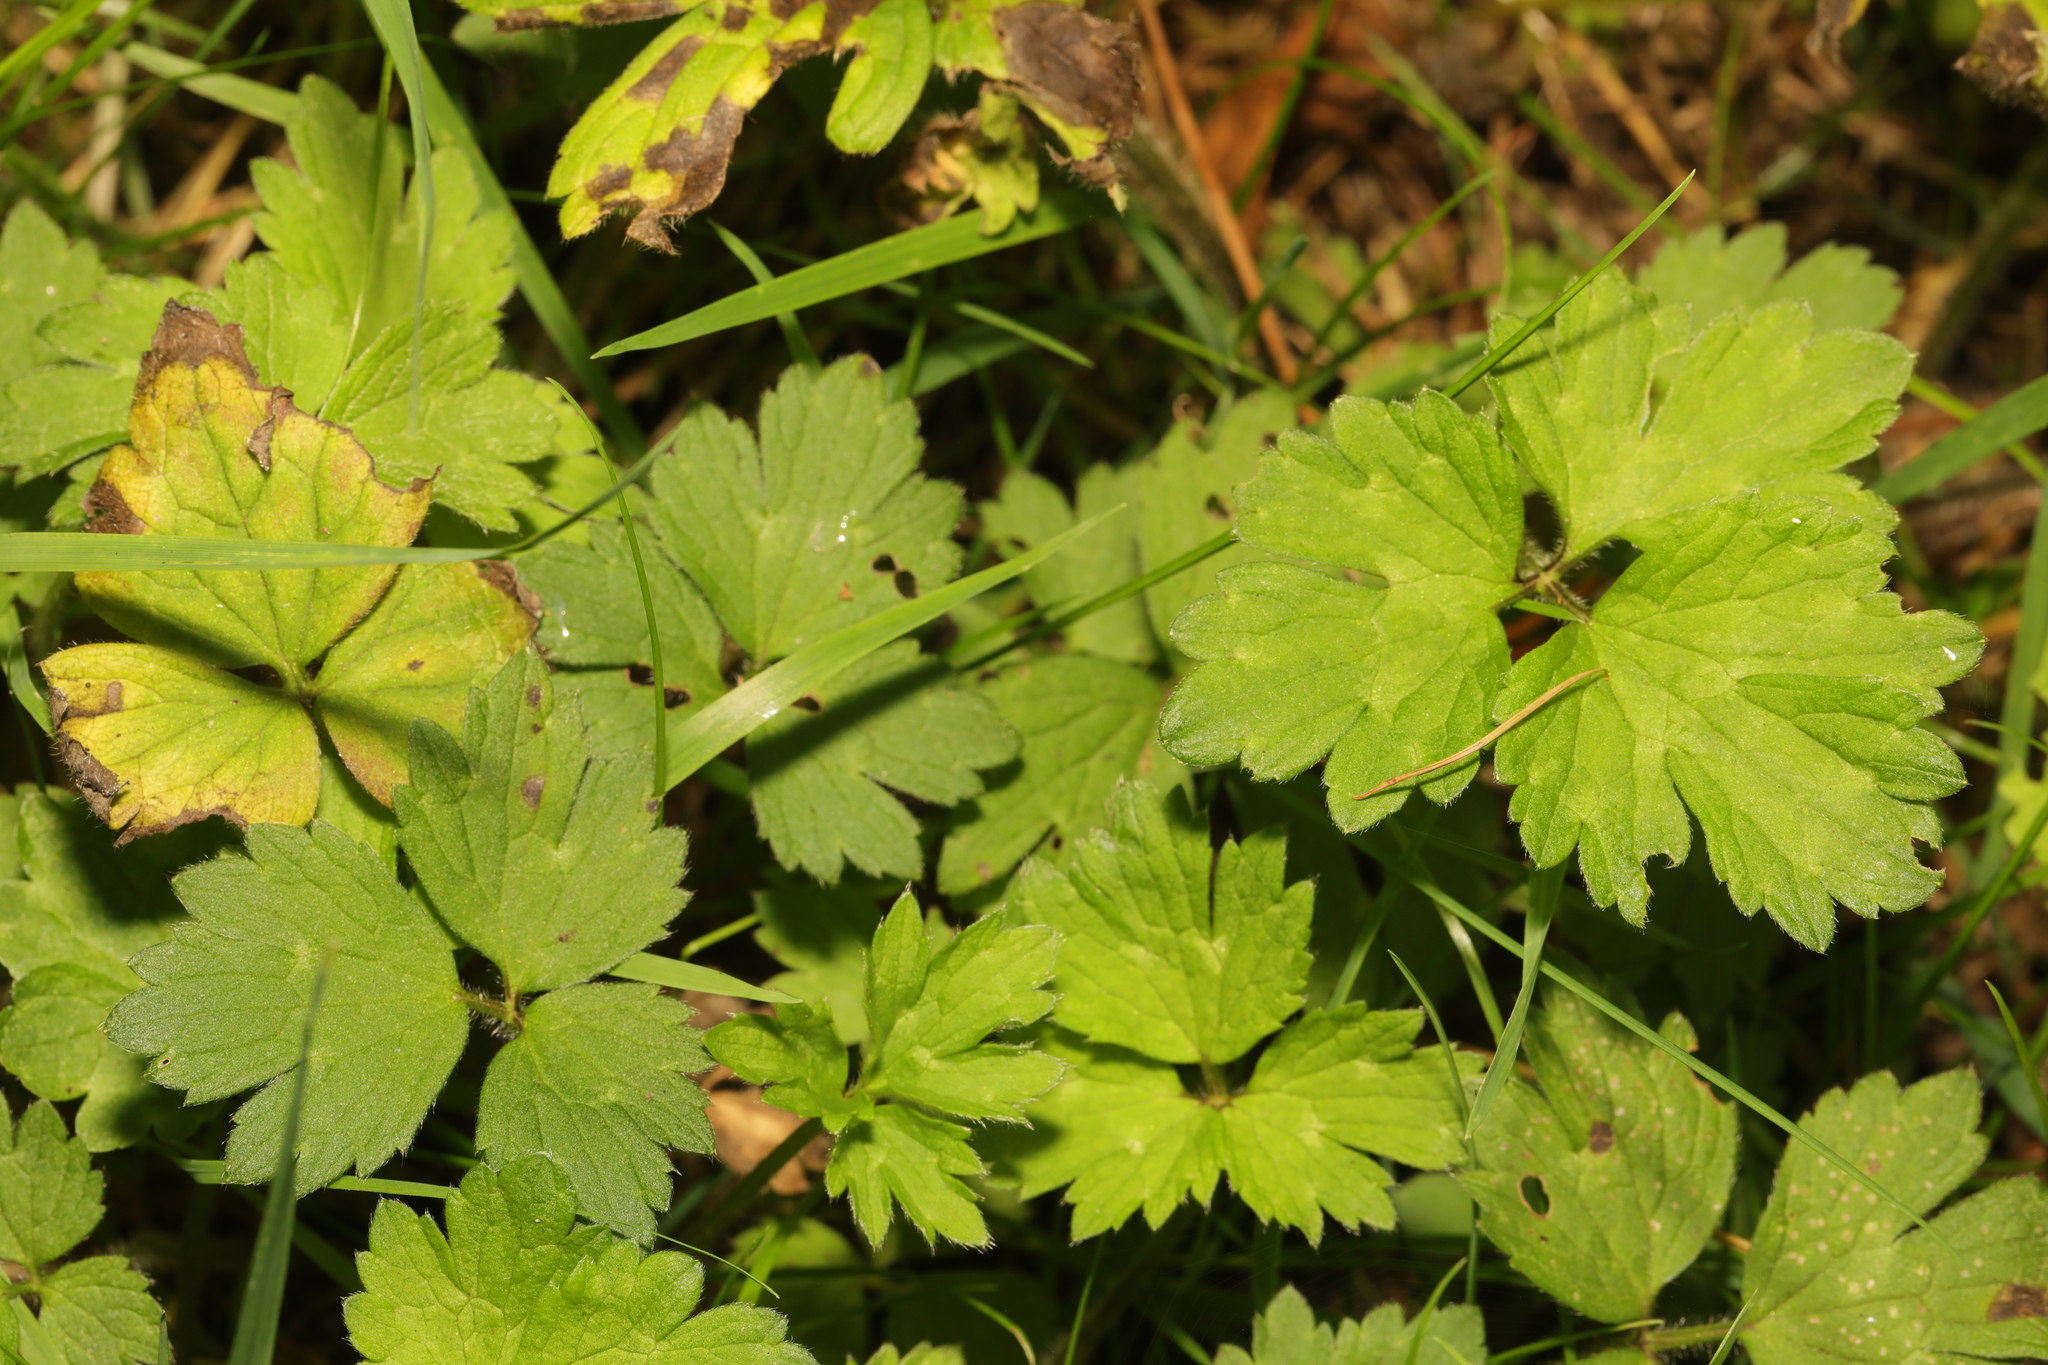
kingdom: Plantae
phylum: Tracheophyta
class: Magnoliopsida
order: Ranunculales
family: Ranunculaceae
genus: Ranunculus
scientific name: Ranunculus repens
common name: Creeping buttercup
